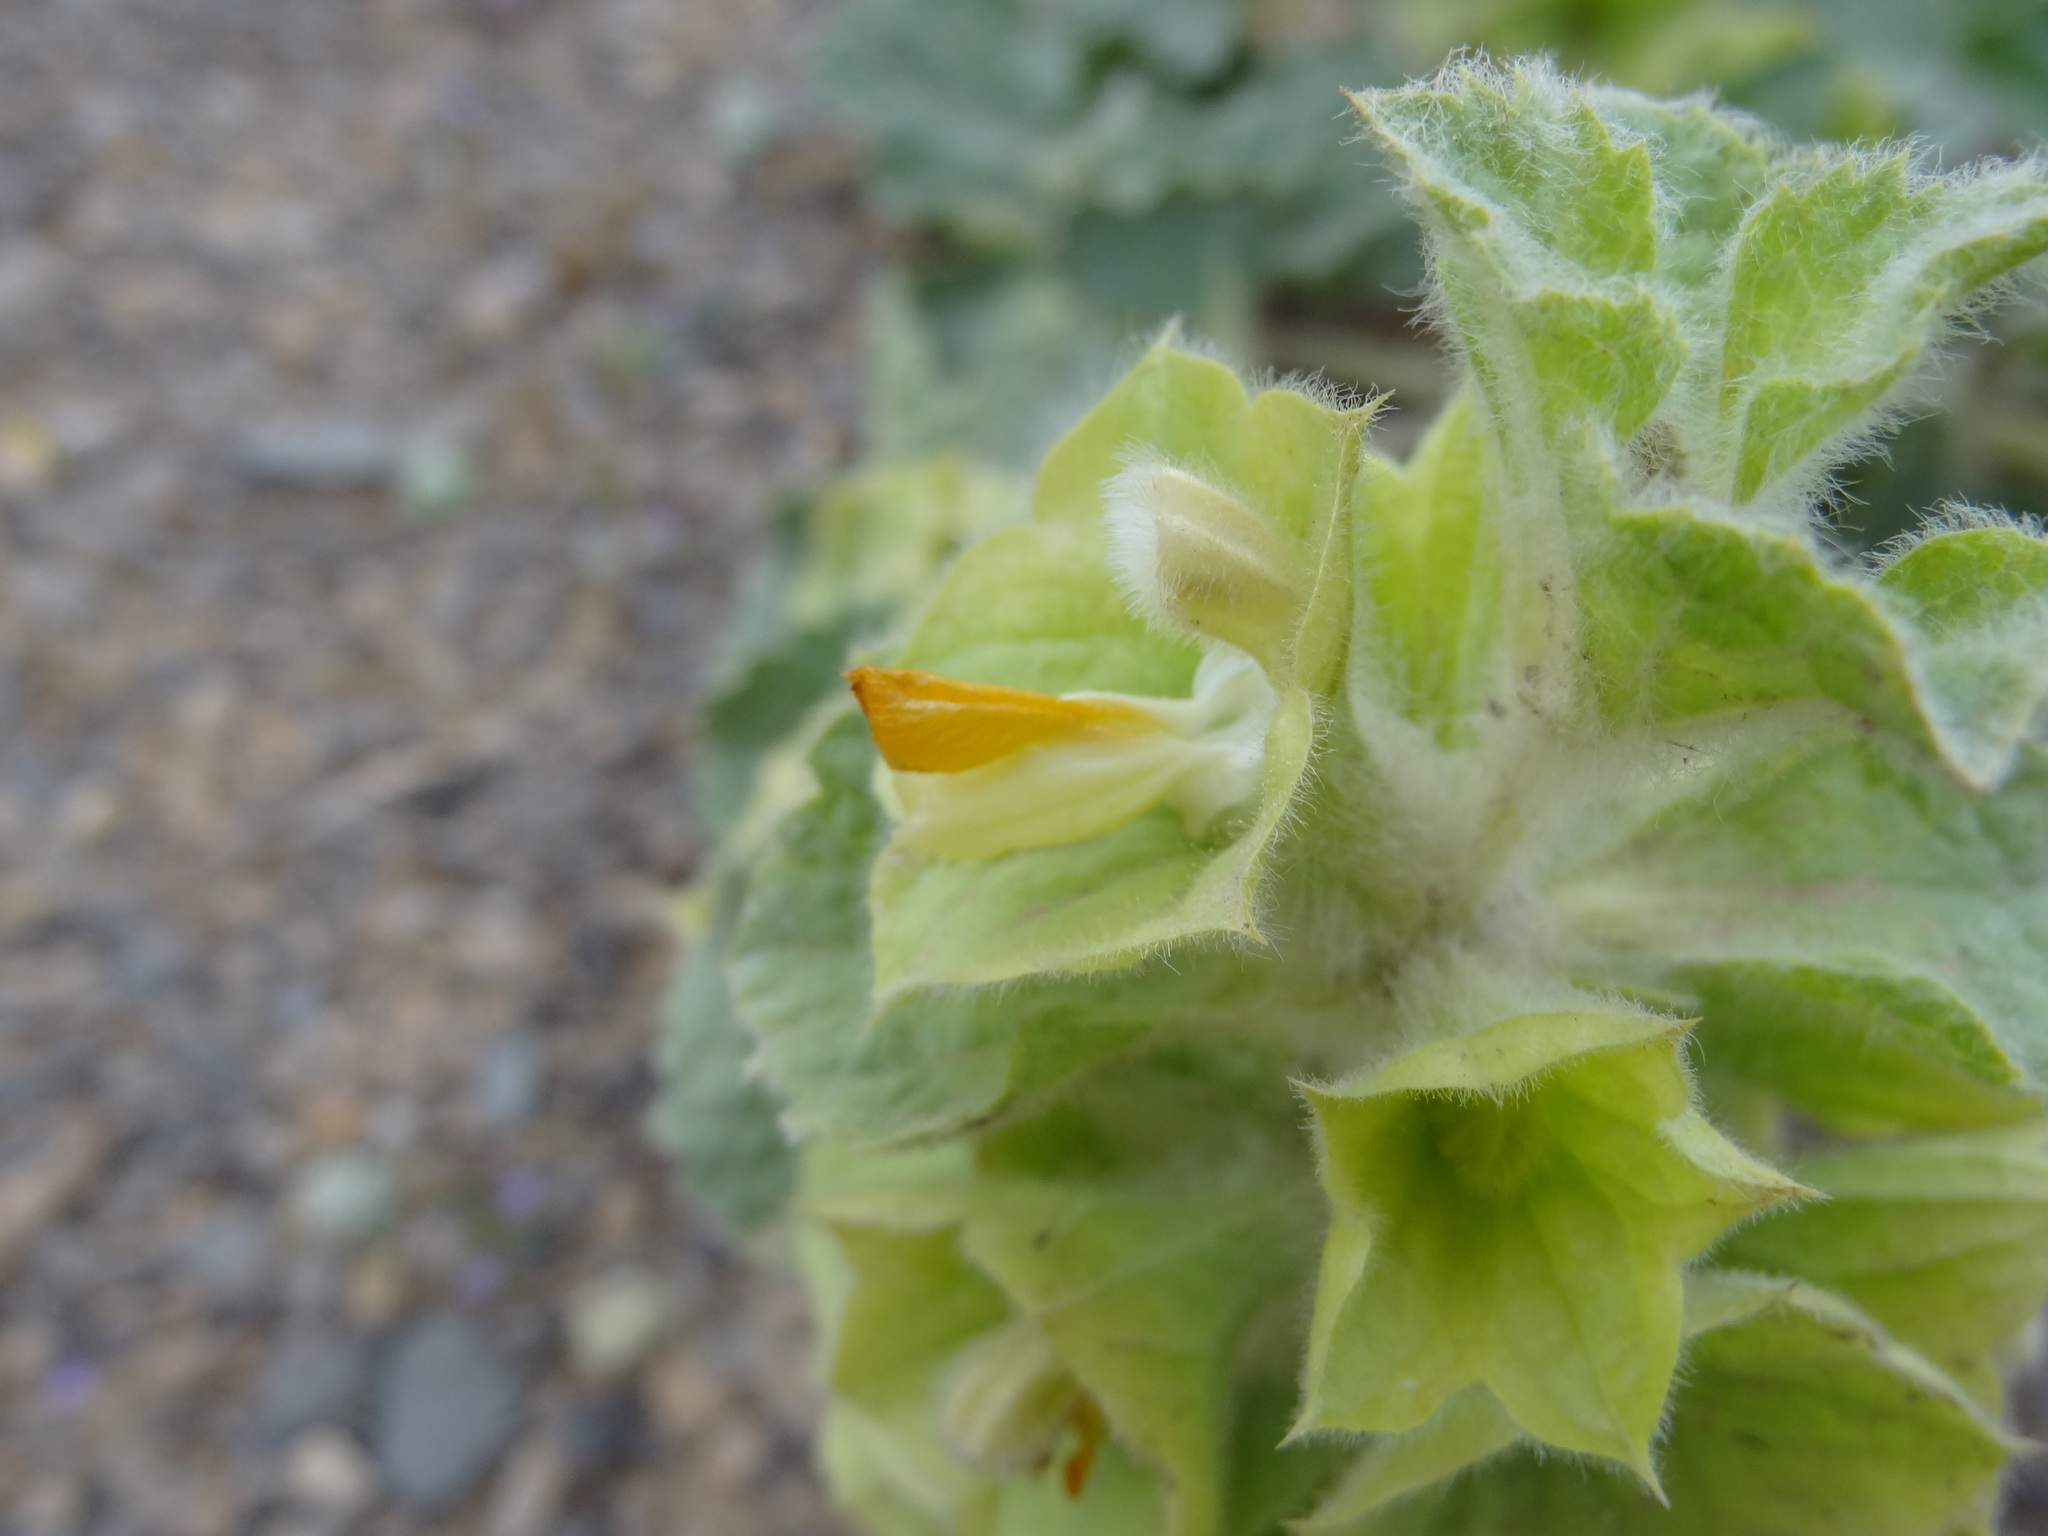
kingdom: Plantae
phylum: Tracheophyta
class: Magnoliopsida
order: Lamiales
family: Lamiaceae
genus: Phlomoides
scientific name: Phlomoides molucelloides
